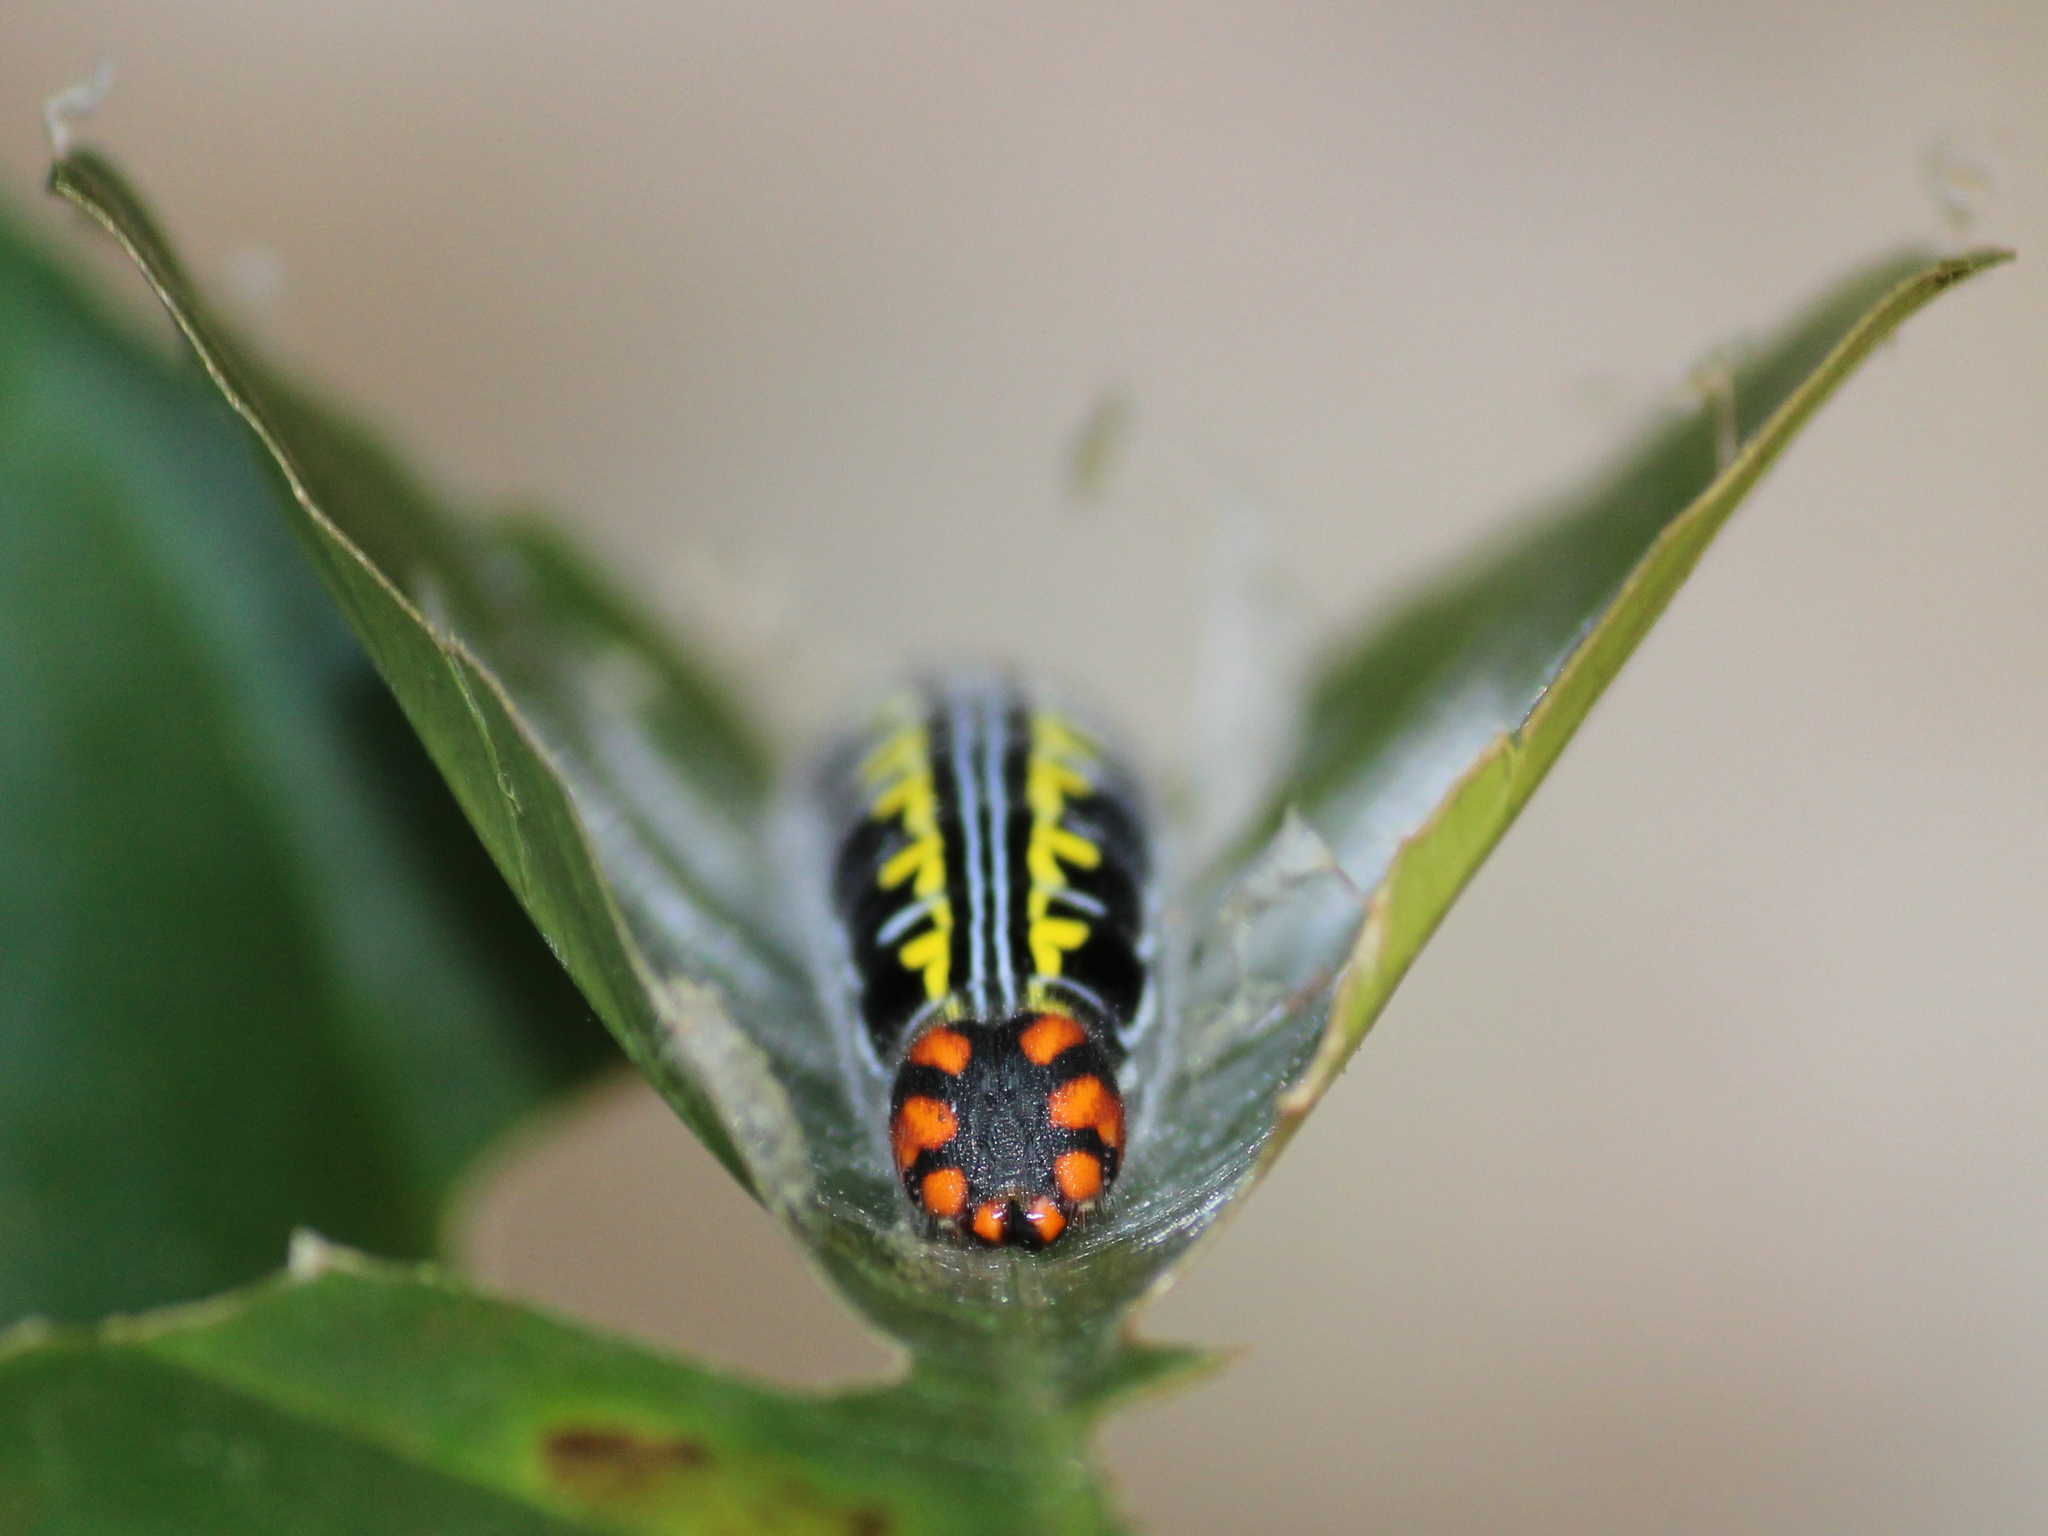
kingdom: Animalia
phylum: Arthropoda
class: Insecta
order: Lepidoptera
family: Hesperiidae
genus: Bibasis
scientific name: Bibasis jaina
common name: Common orange awlet
